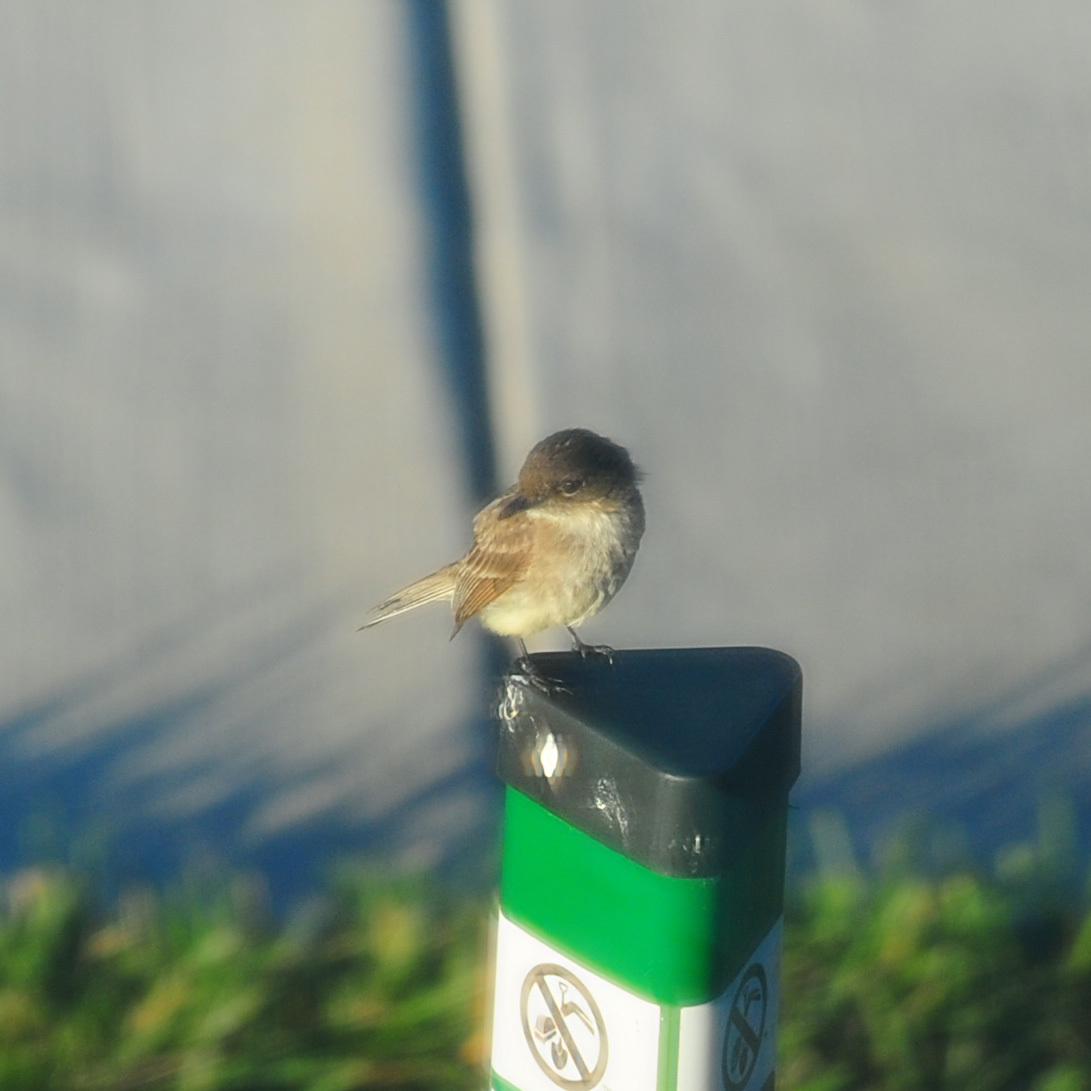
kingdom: Animalia
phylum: Chordata
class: Aves
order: Passeriformes
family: Tyrannidae
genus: Sayornis
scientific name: Sayornis phoebe
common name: Eastern phoebe
